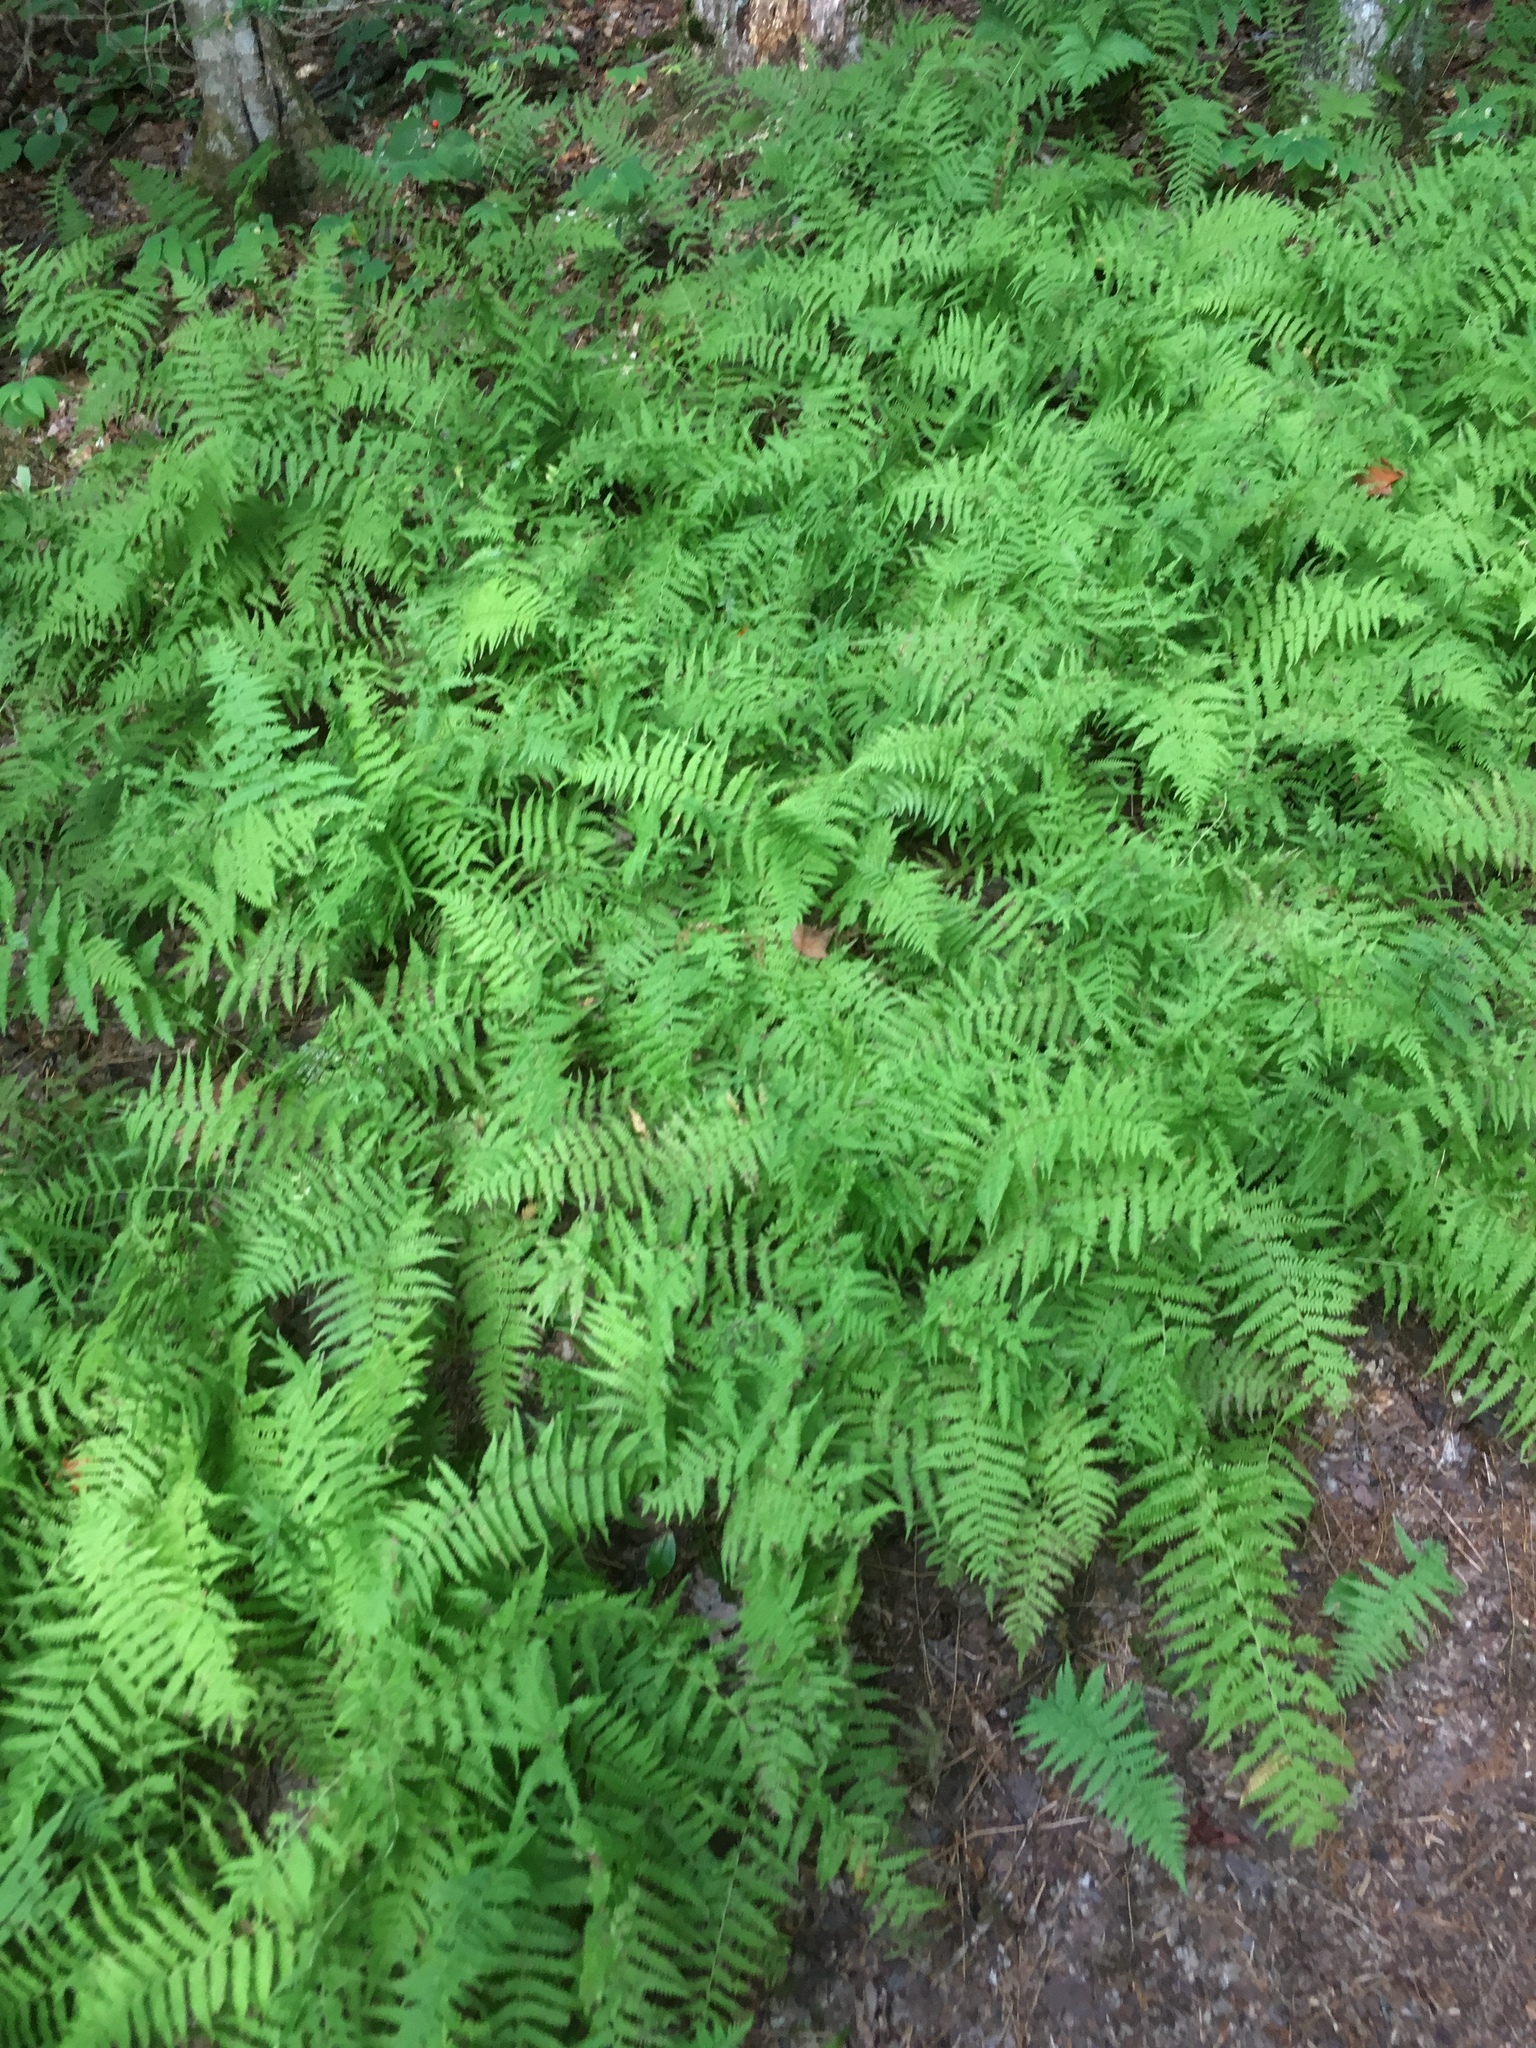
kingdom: Plantae
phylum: Tracheophyta
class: Polypodiopsida
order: Polypodiales
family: Dennstaedtiaceae
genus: Sitobolium
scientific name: Sitobolium punctilobum
